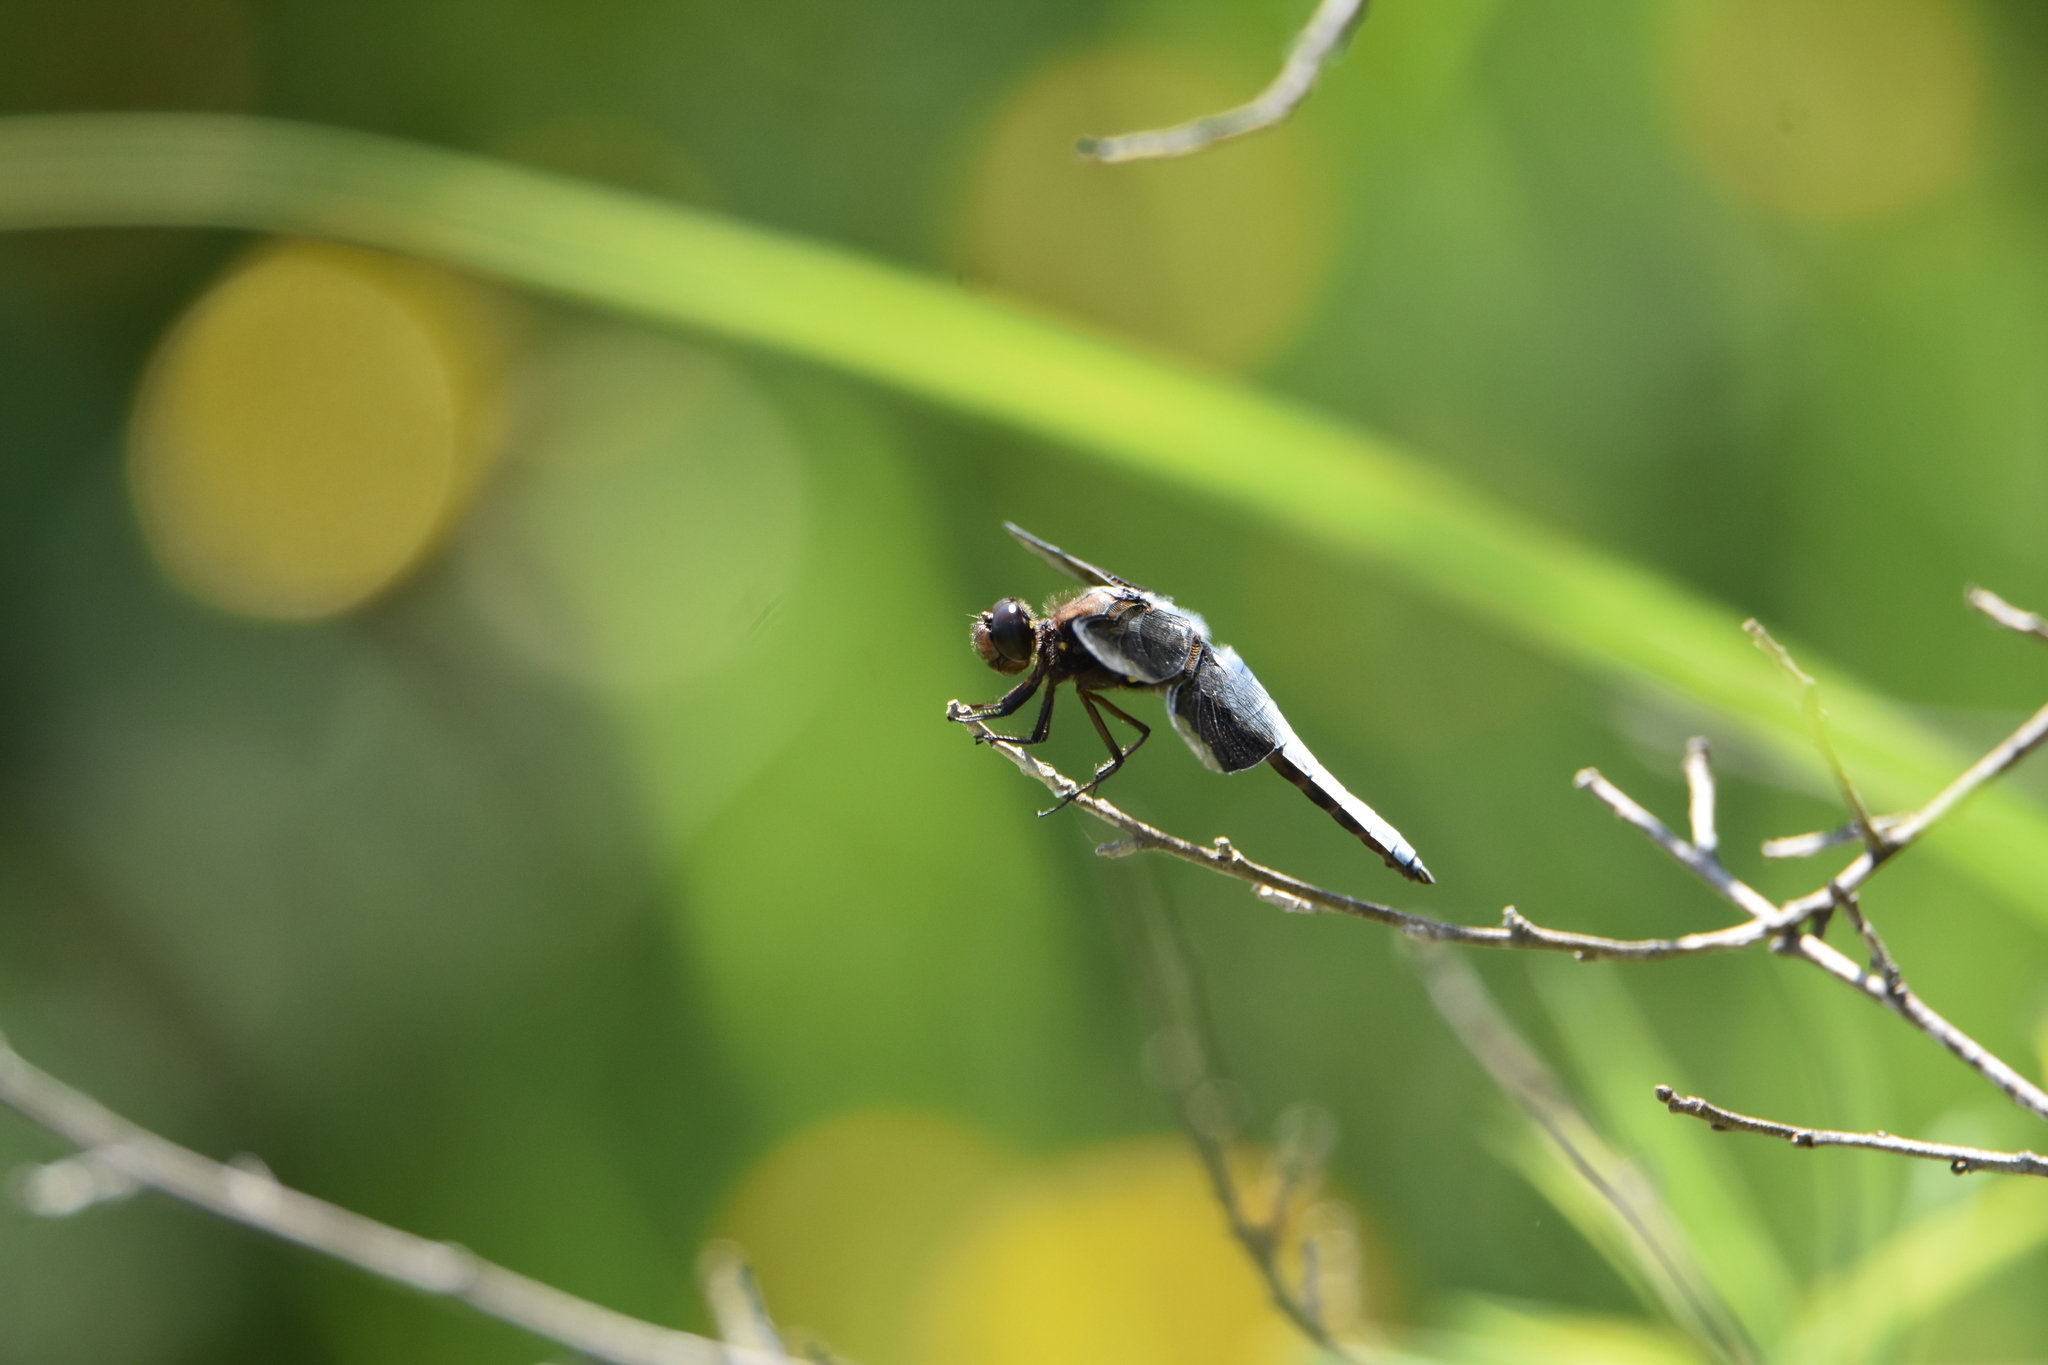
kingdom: Animalia
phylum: Arthropoda
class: Insecta
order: Odonata
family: Libellulidae
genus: Plathemis
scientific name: Plathemis lydia
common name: Common whitetail
